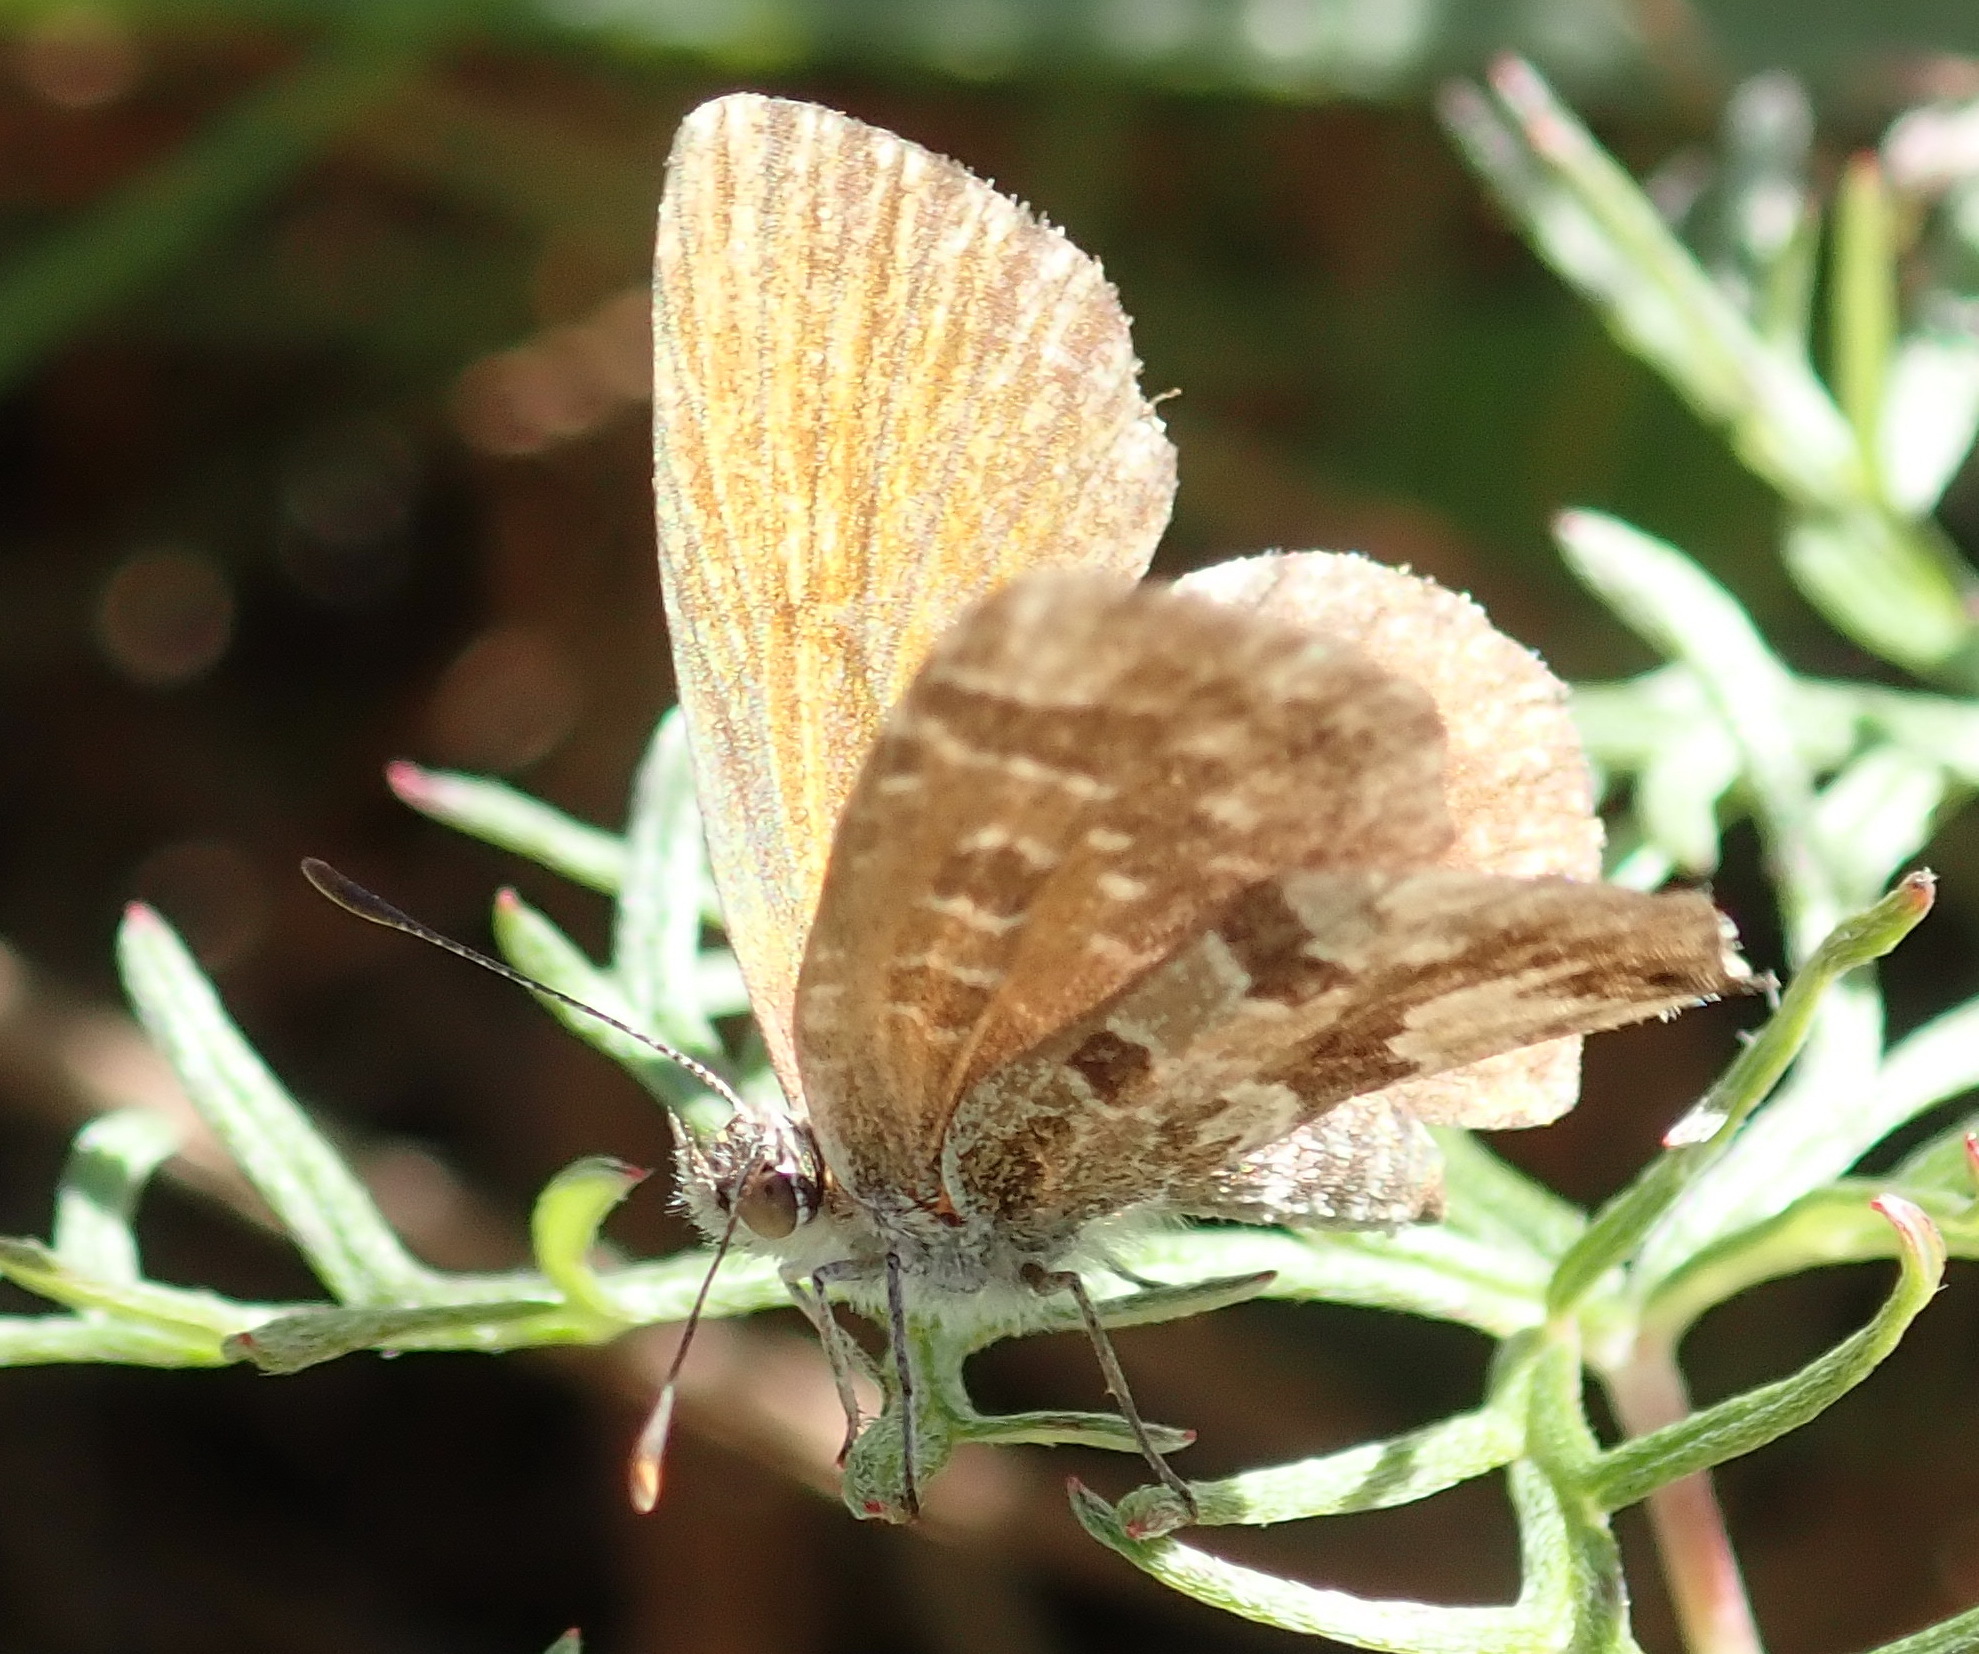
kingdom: Animalia
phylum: Arthropoda
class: Insecta
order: Lepidoptera
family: Lycaenidae
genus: Cacyreus
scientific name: Cacyreus marshalli
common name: Geranium bronze
